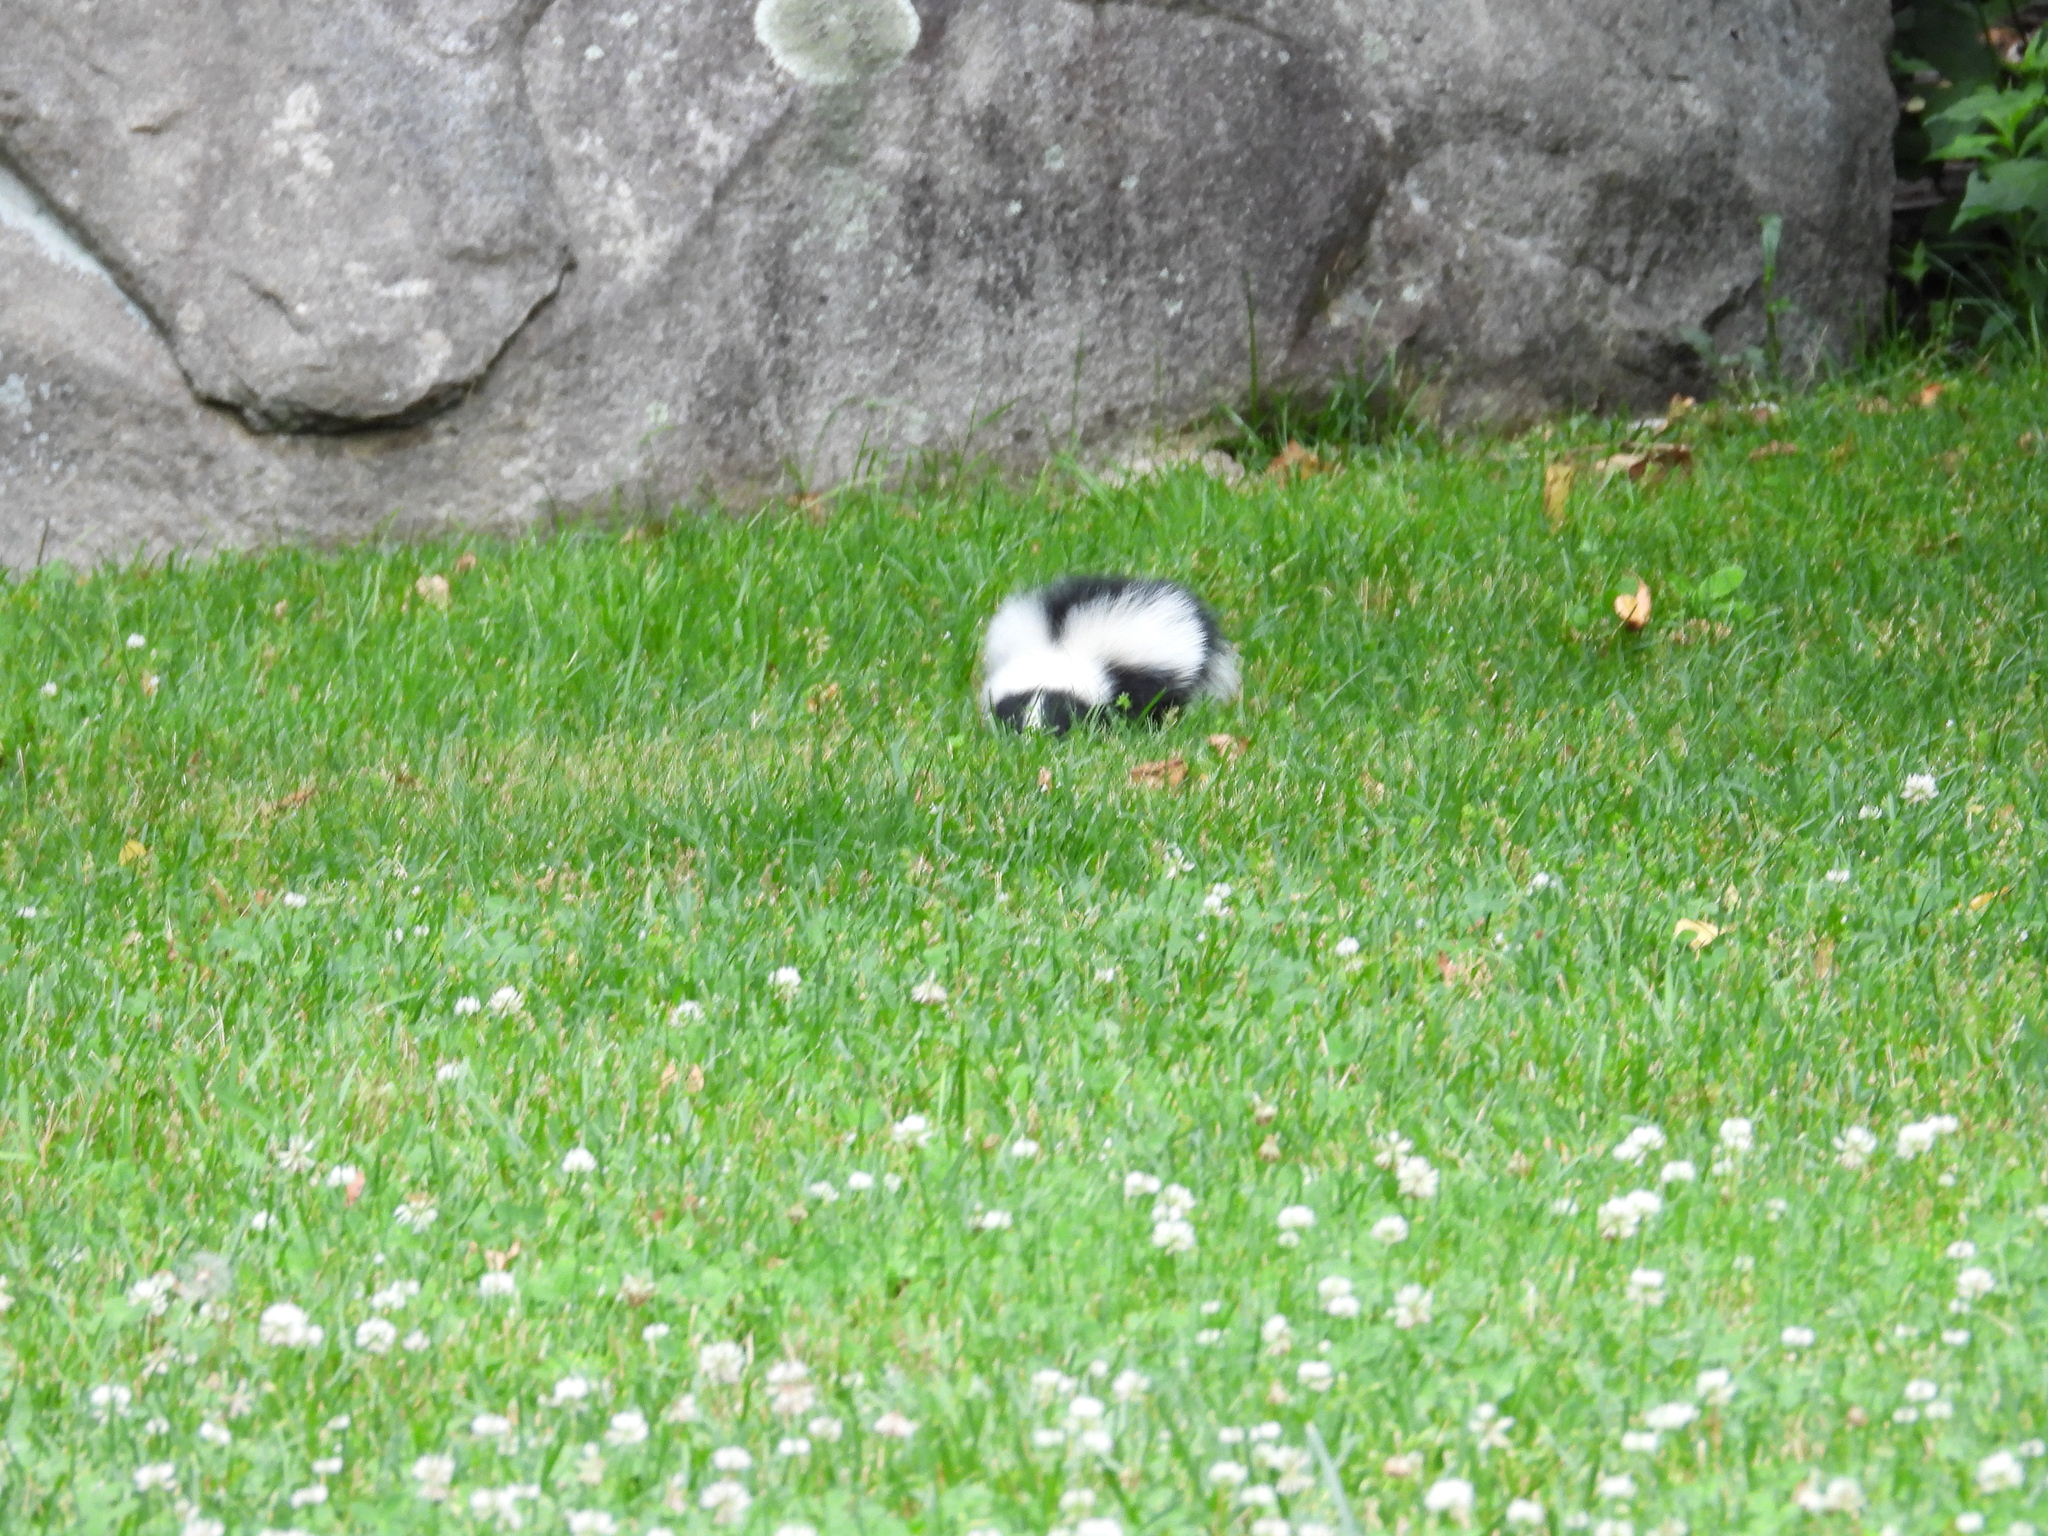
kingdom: Animalia
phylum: Chordata
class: Mammalia
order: Carnivora
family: Mephitidae
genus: Mephitis
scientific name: Mephitis mephitis
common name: Striped skunk
